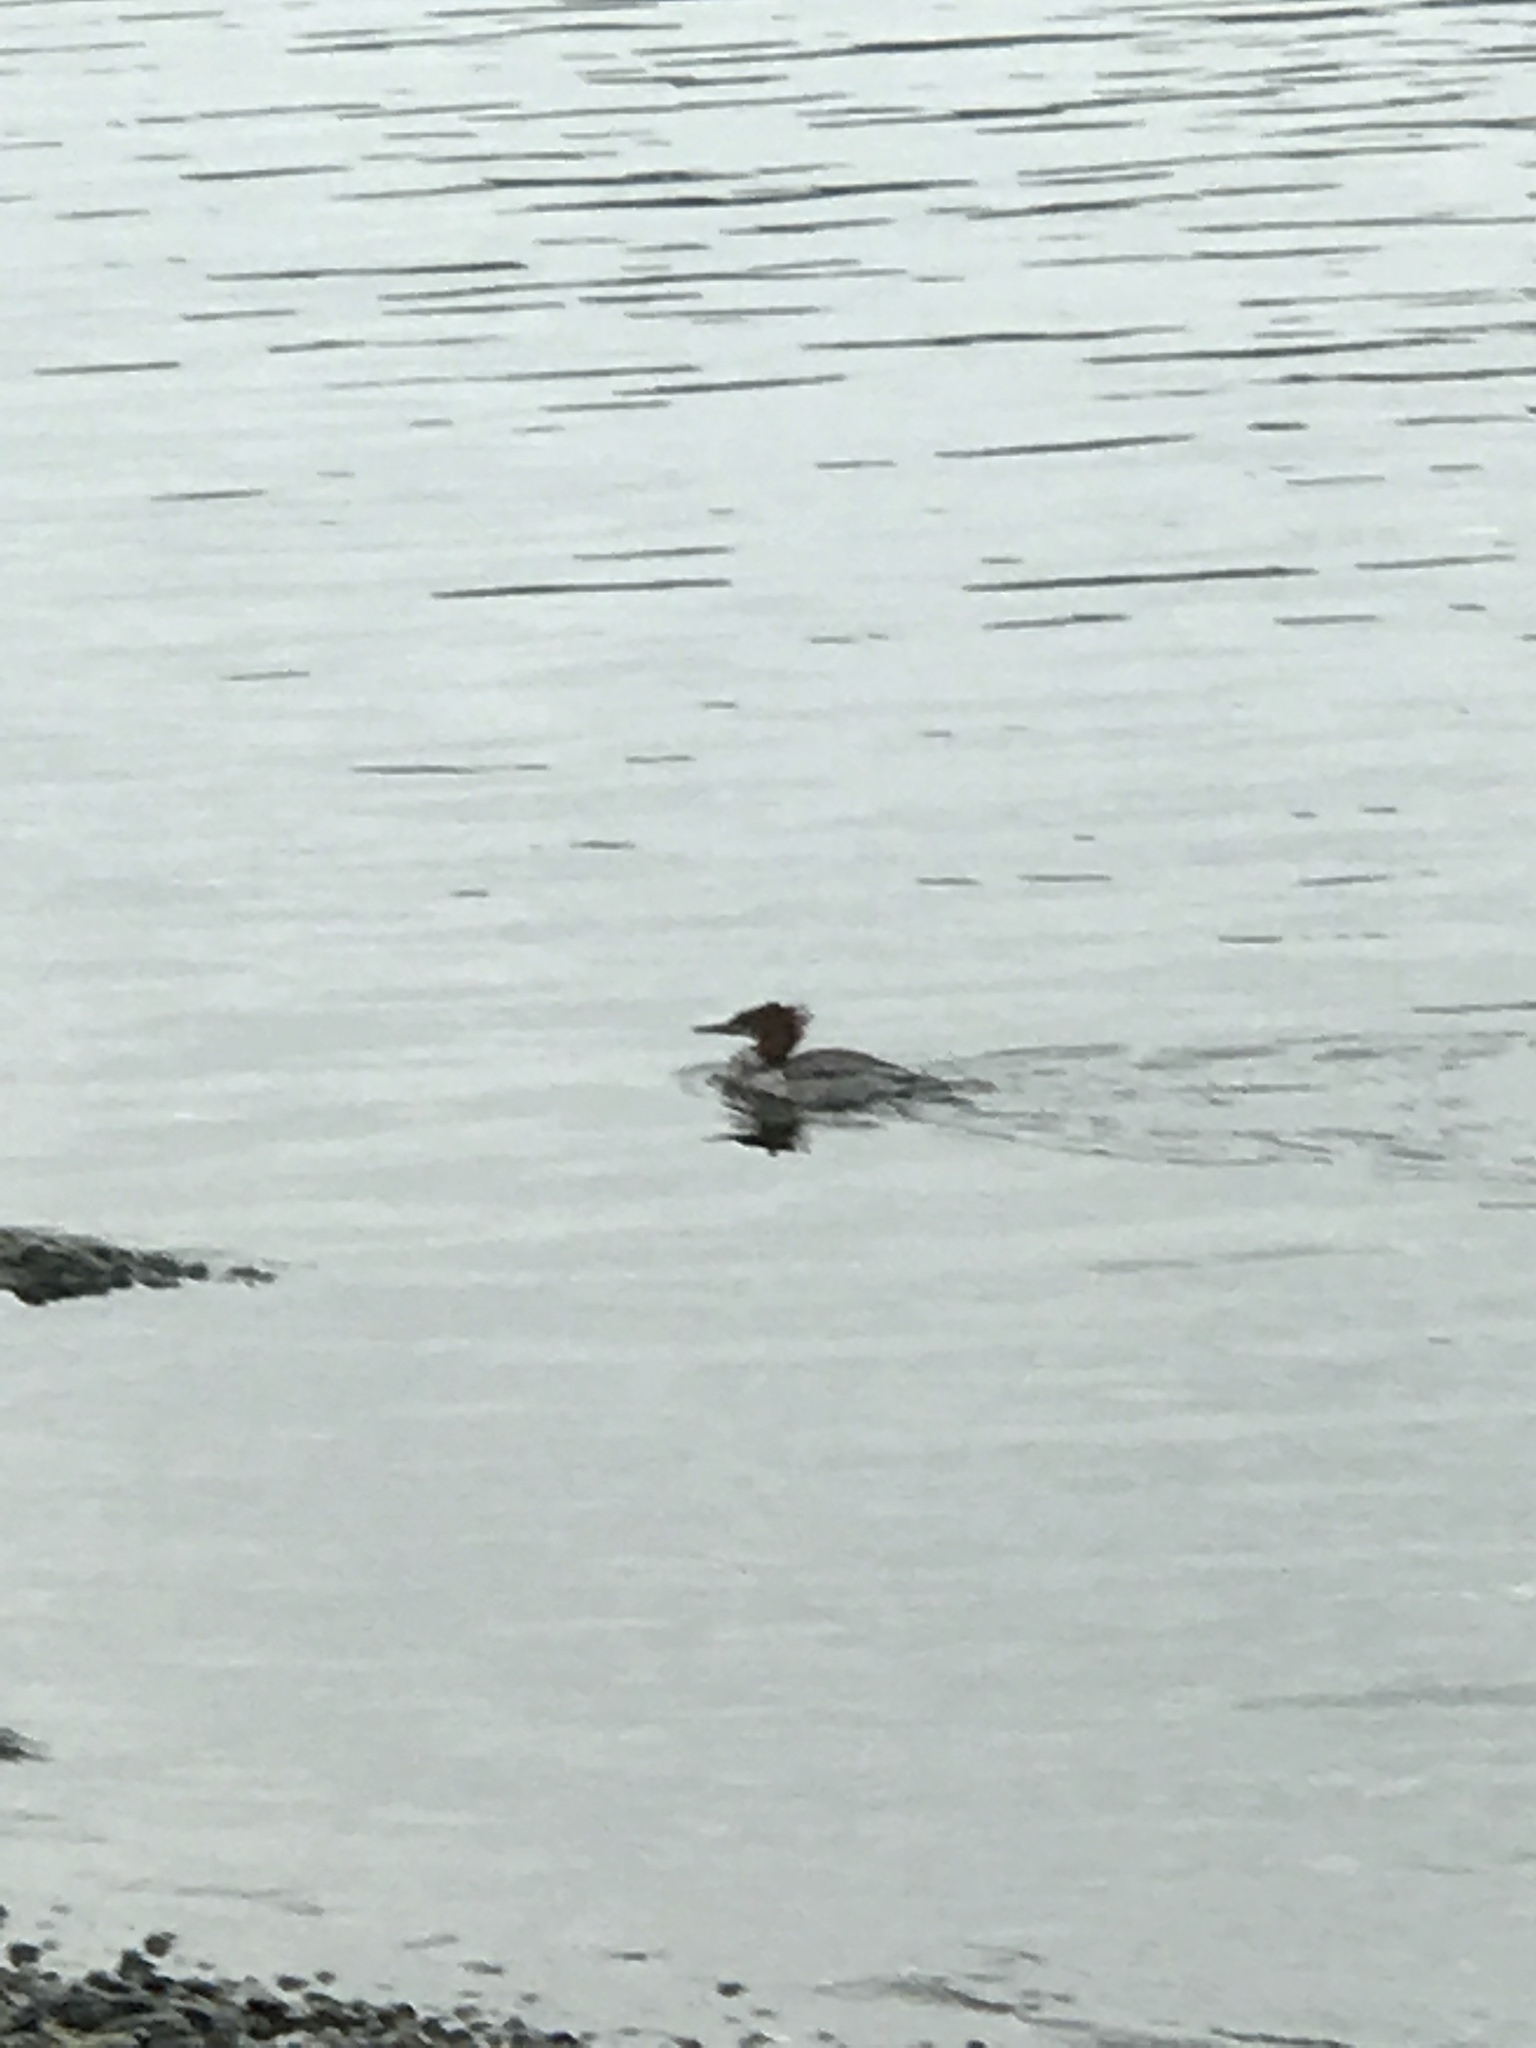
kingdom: Animalia
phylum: Chordata
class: Aves
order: Anseriformes
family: Anatidae
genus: Mergus
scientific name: Mergus merganser
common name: Common merganser
